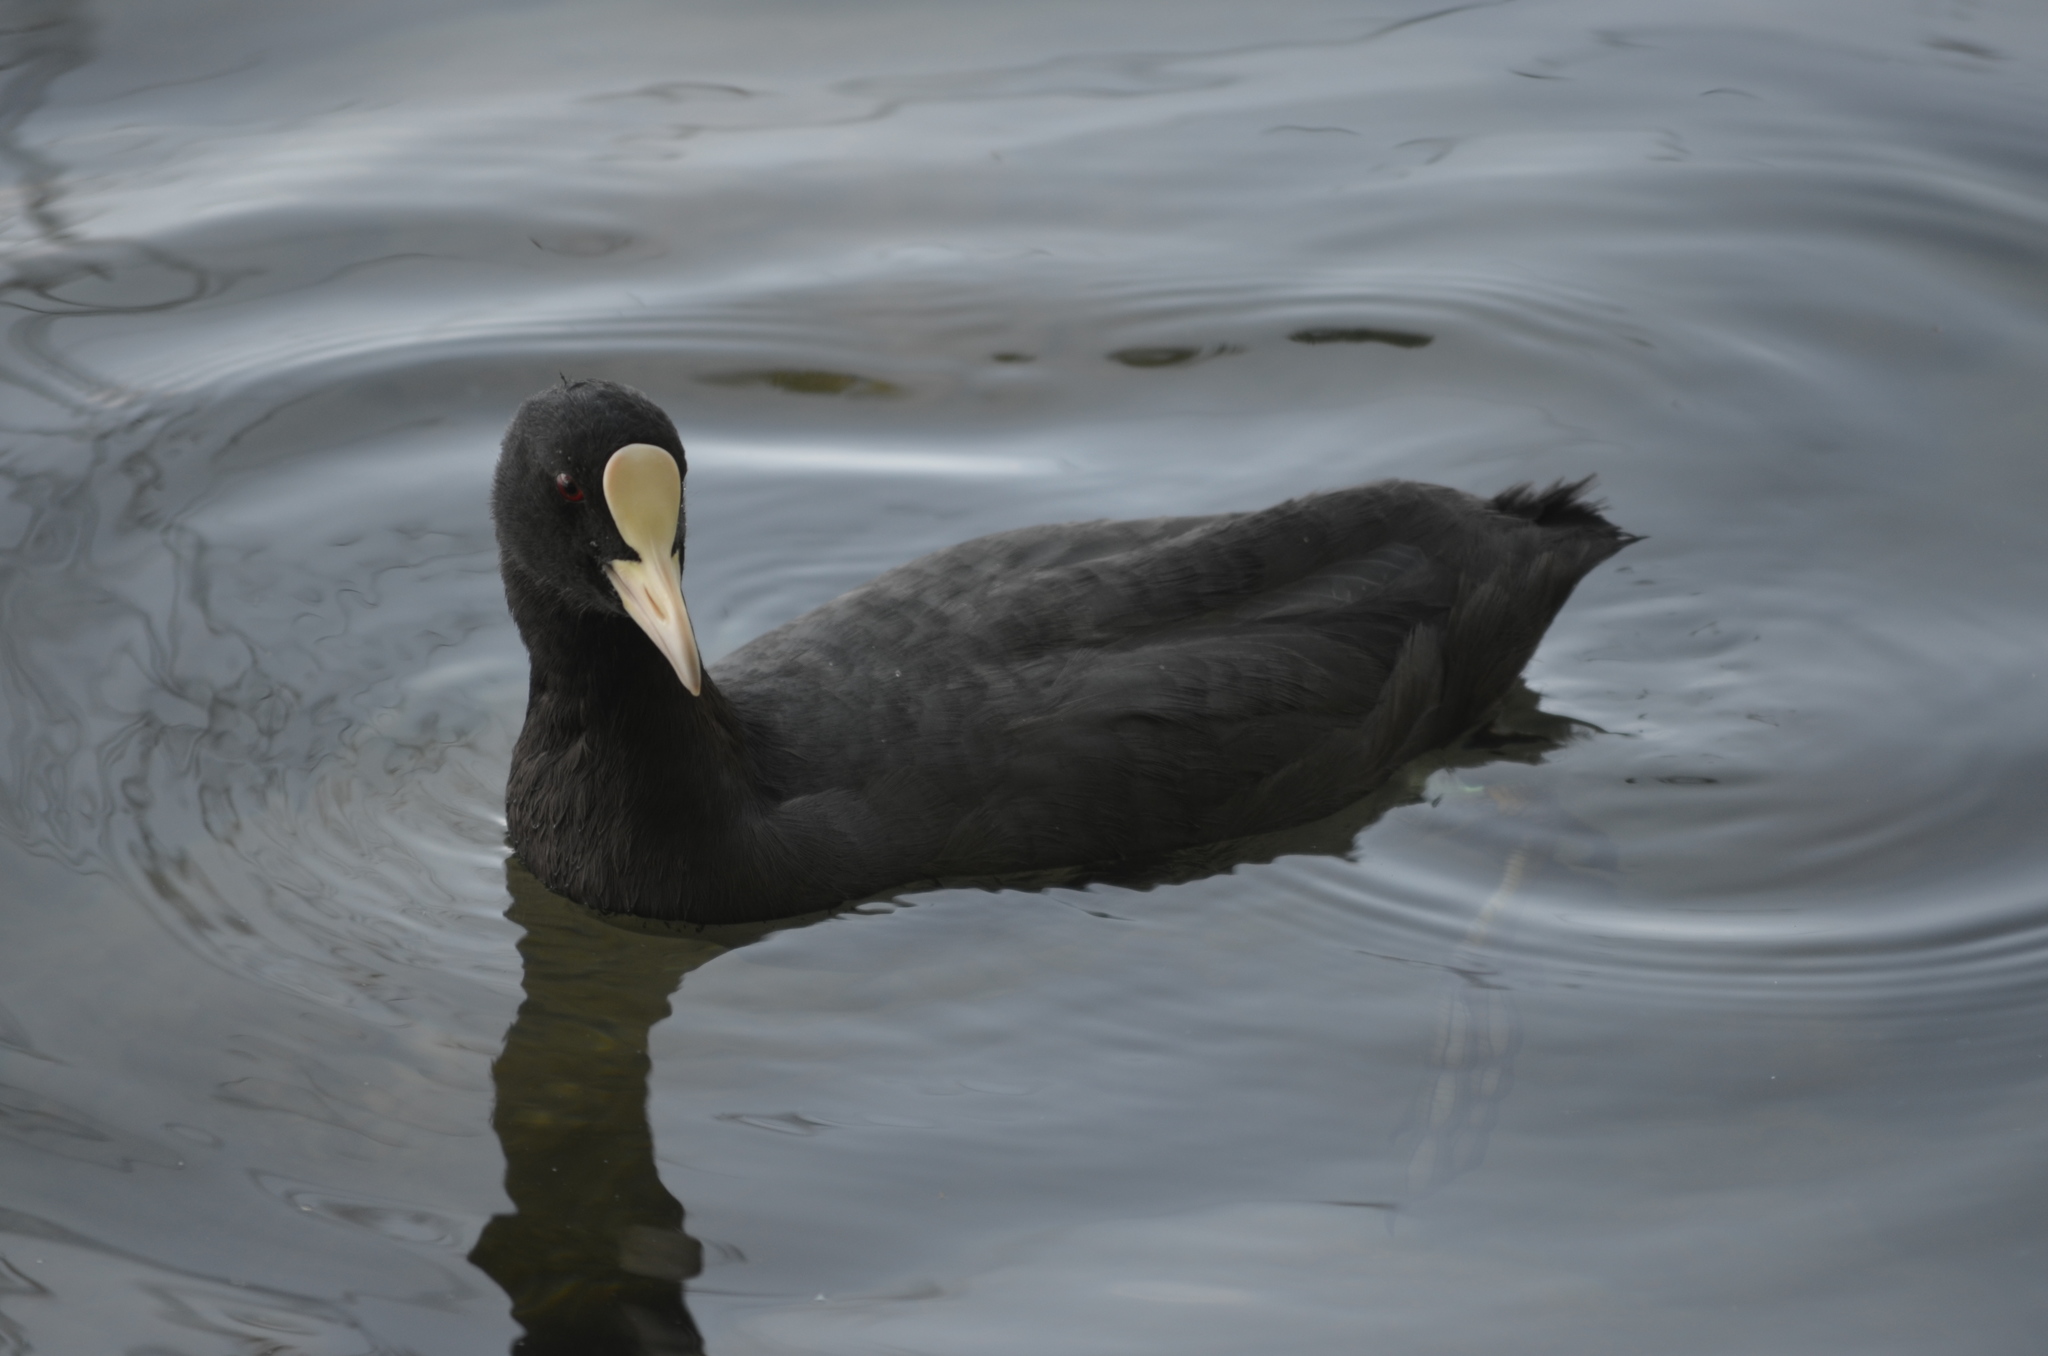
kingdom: Animalia
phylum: Chordata
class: Aves
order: Gruiformes
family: Rallidae
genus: Fulica
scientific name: Fulica atra
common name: Eurasian coot
